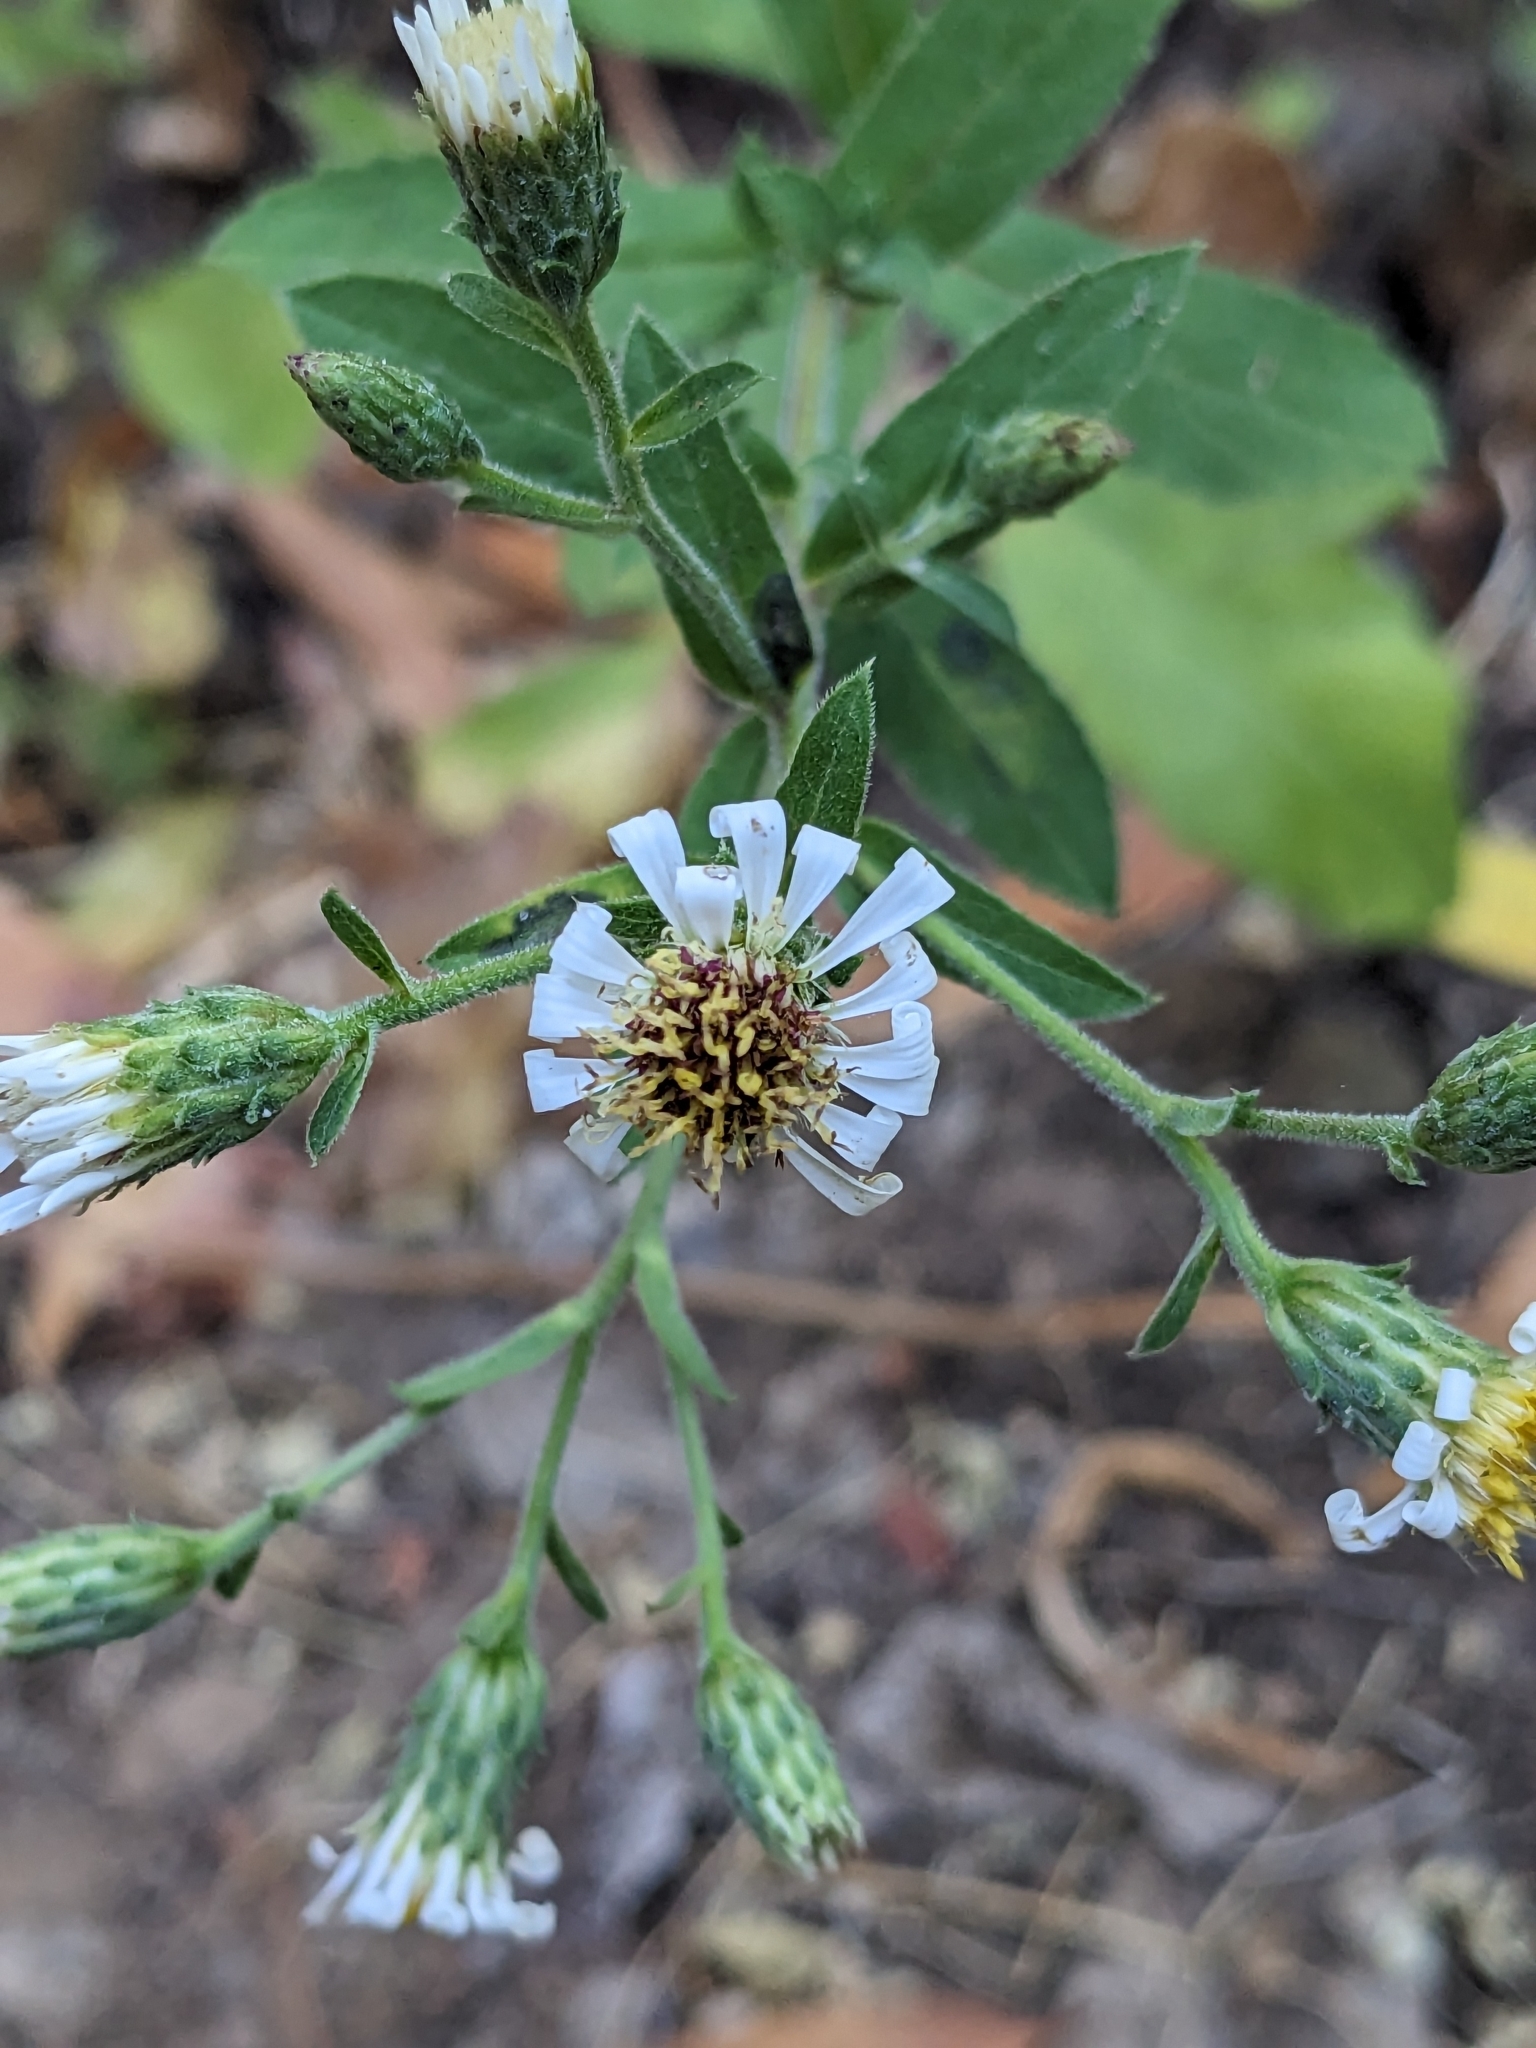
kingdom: Plantae
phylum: Tracheophyta
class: Magnoliopsida
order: Asterales
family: Asteraceae
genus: Eurybia
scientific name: Eurybia radulina
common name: Rough-leaved aster
